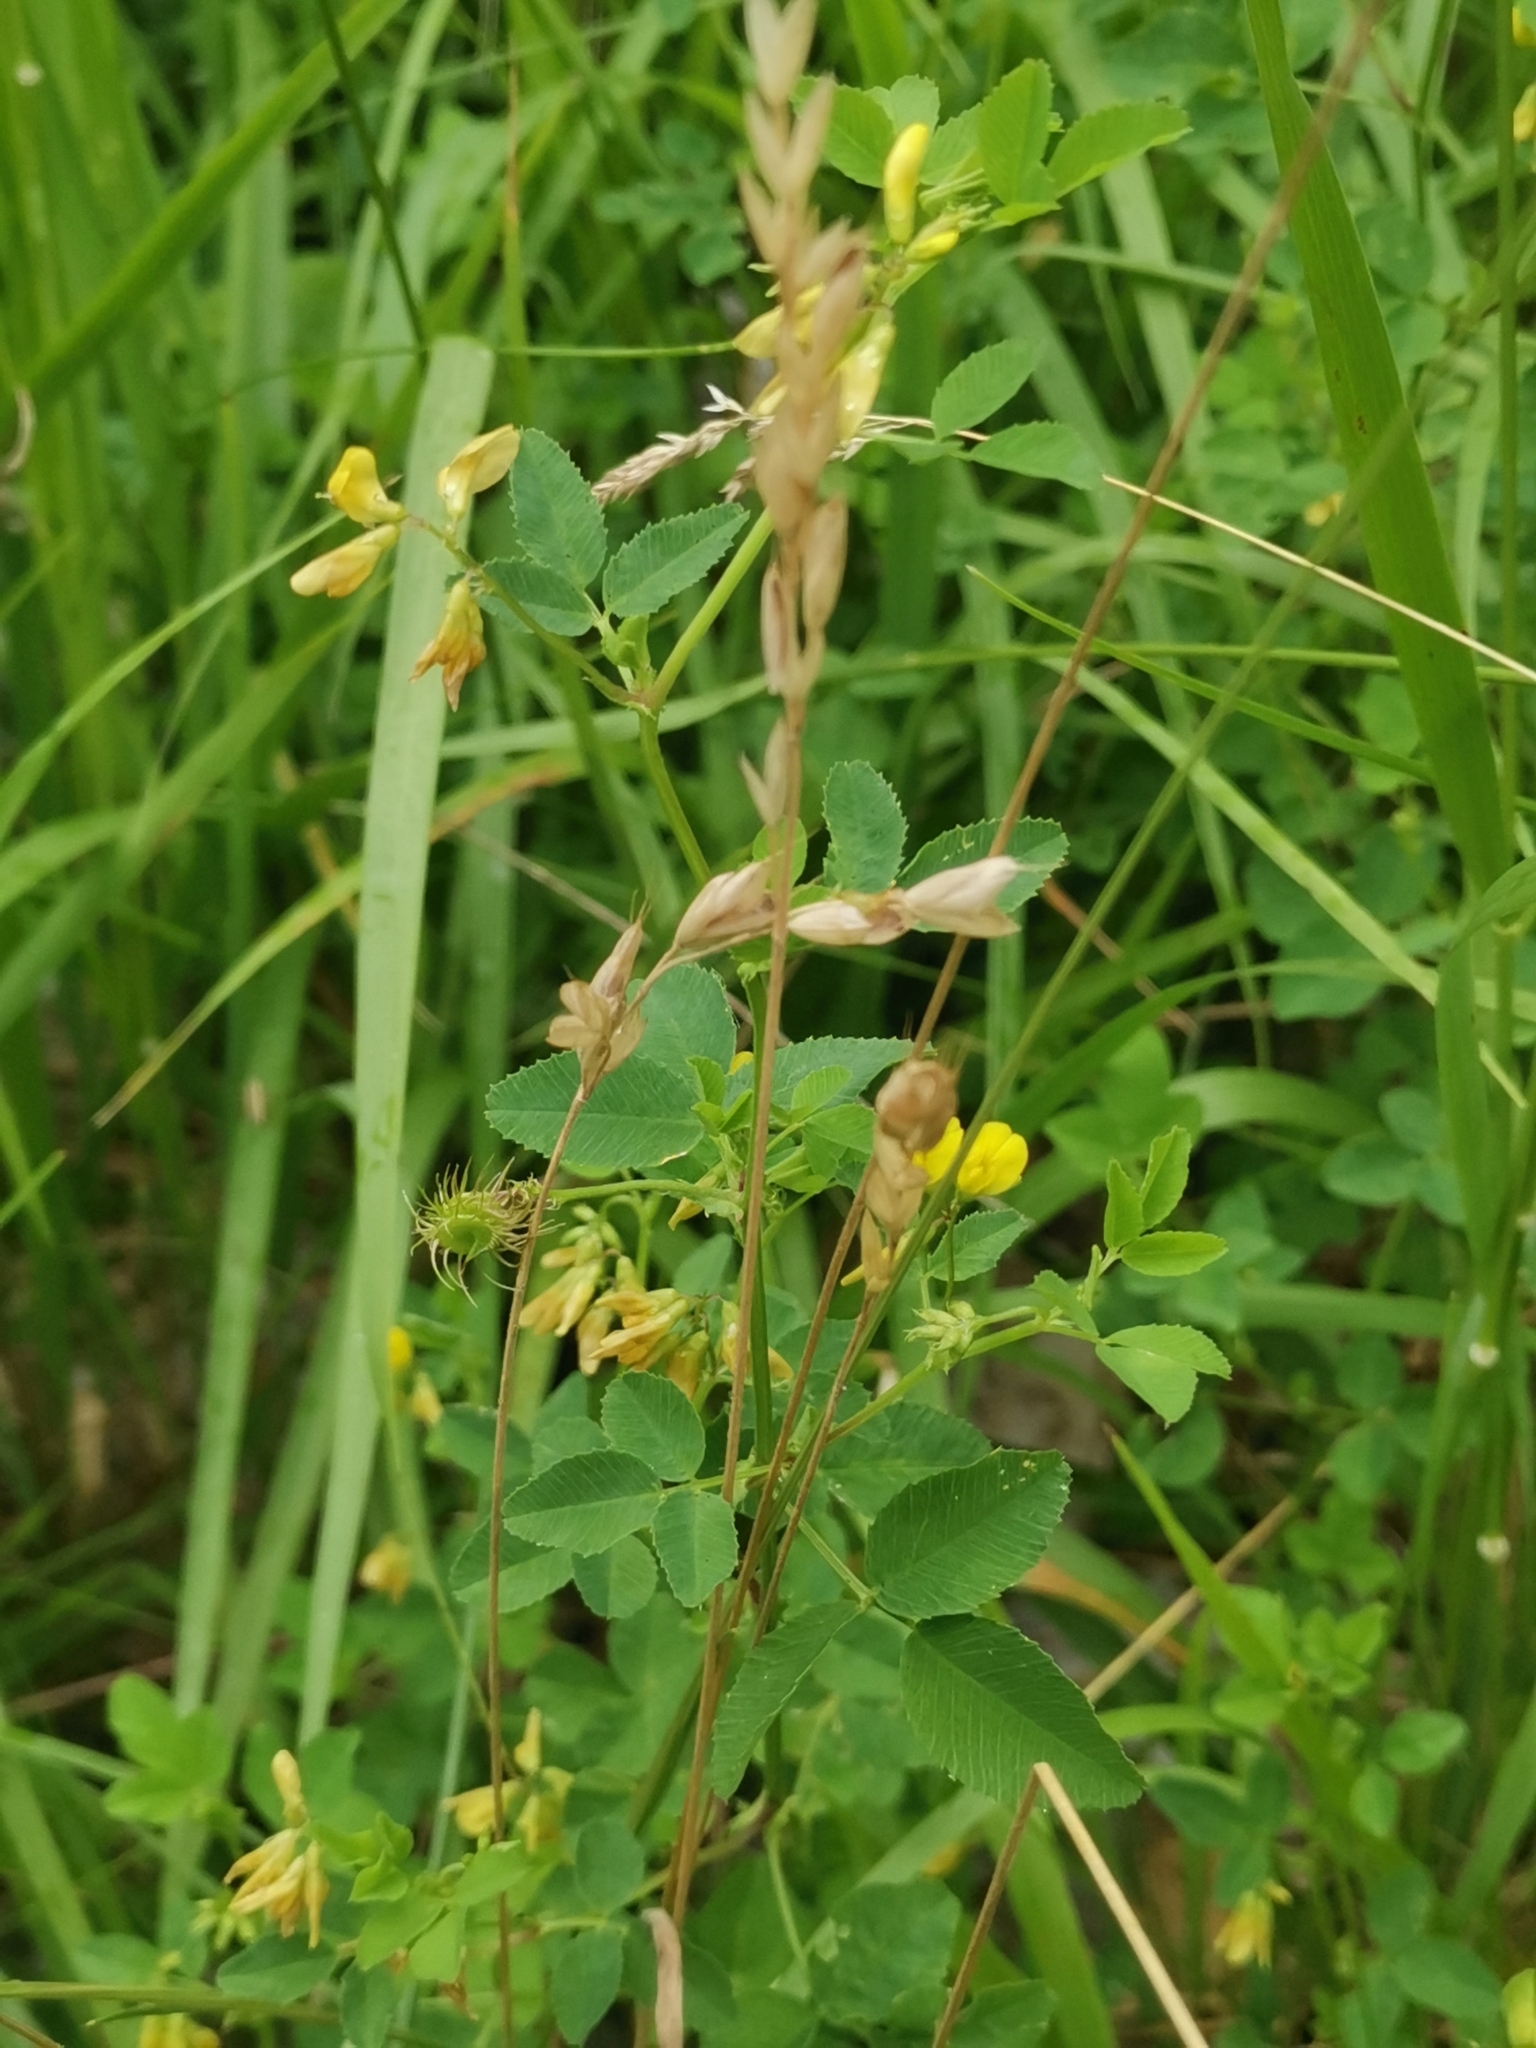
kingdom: Plantae
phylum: Tracheophyta
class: Magnoliopsida
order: Fabales
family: Fabaceae
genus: Medicago
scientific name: Medicago carstiensis
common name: Creeping-rooted medic
